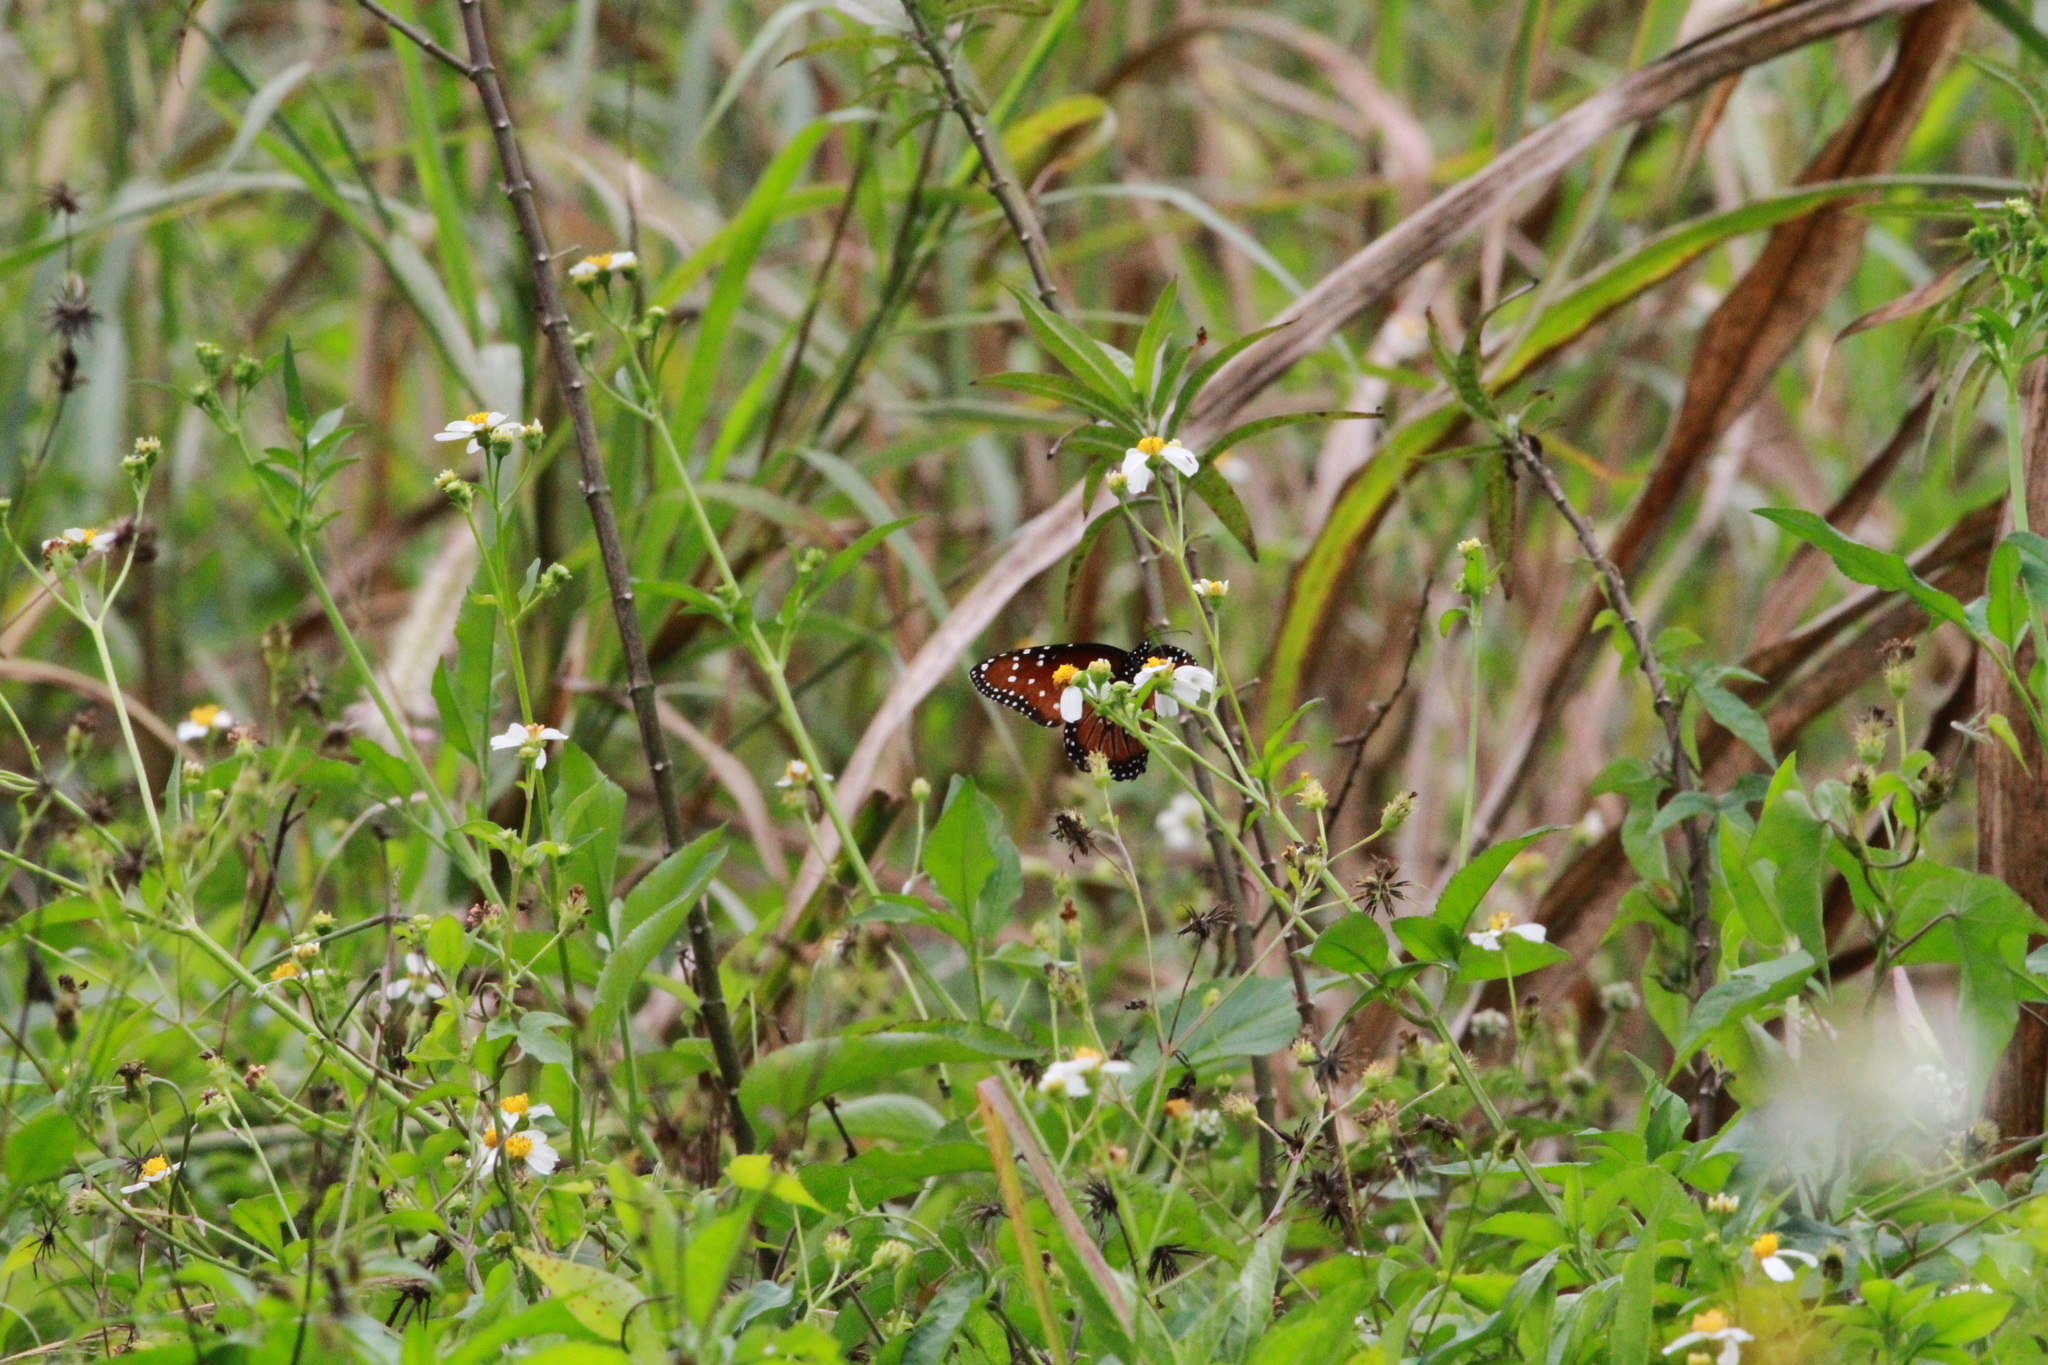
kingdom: Animalia
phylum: Arthropoda
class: Insecta
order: Lepidoptera
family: Nymphalidae
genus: Danaus
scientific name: Danaus gilippus
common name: Queen
